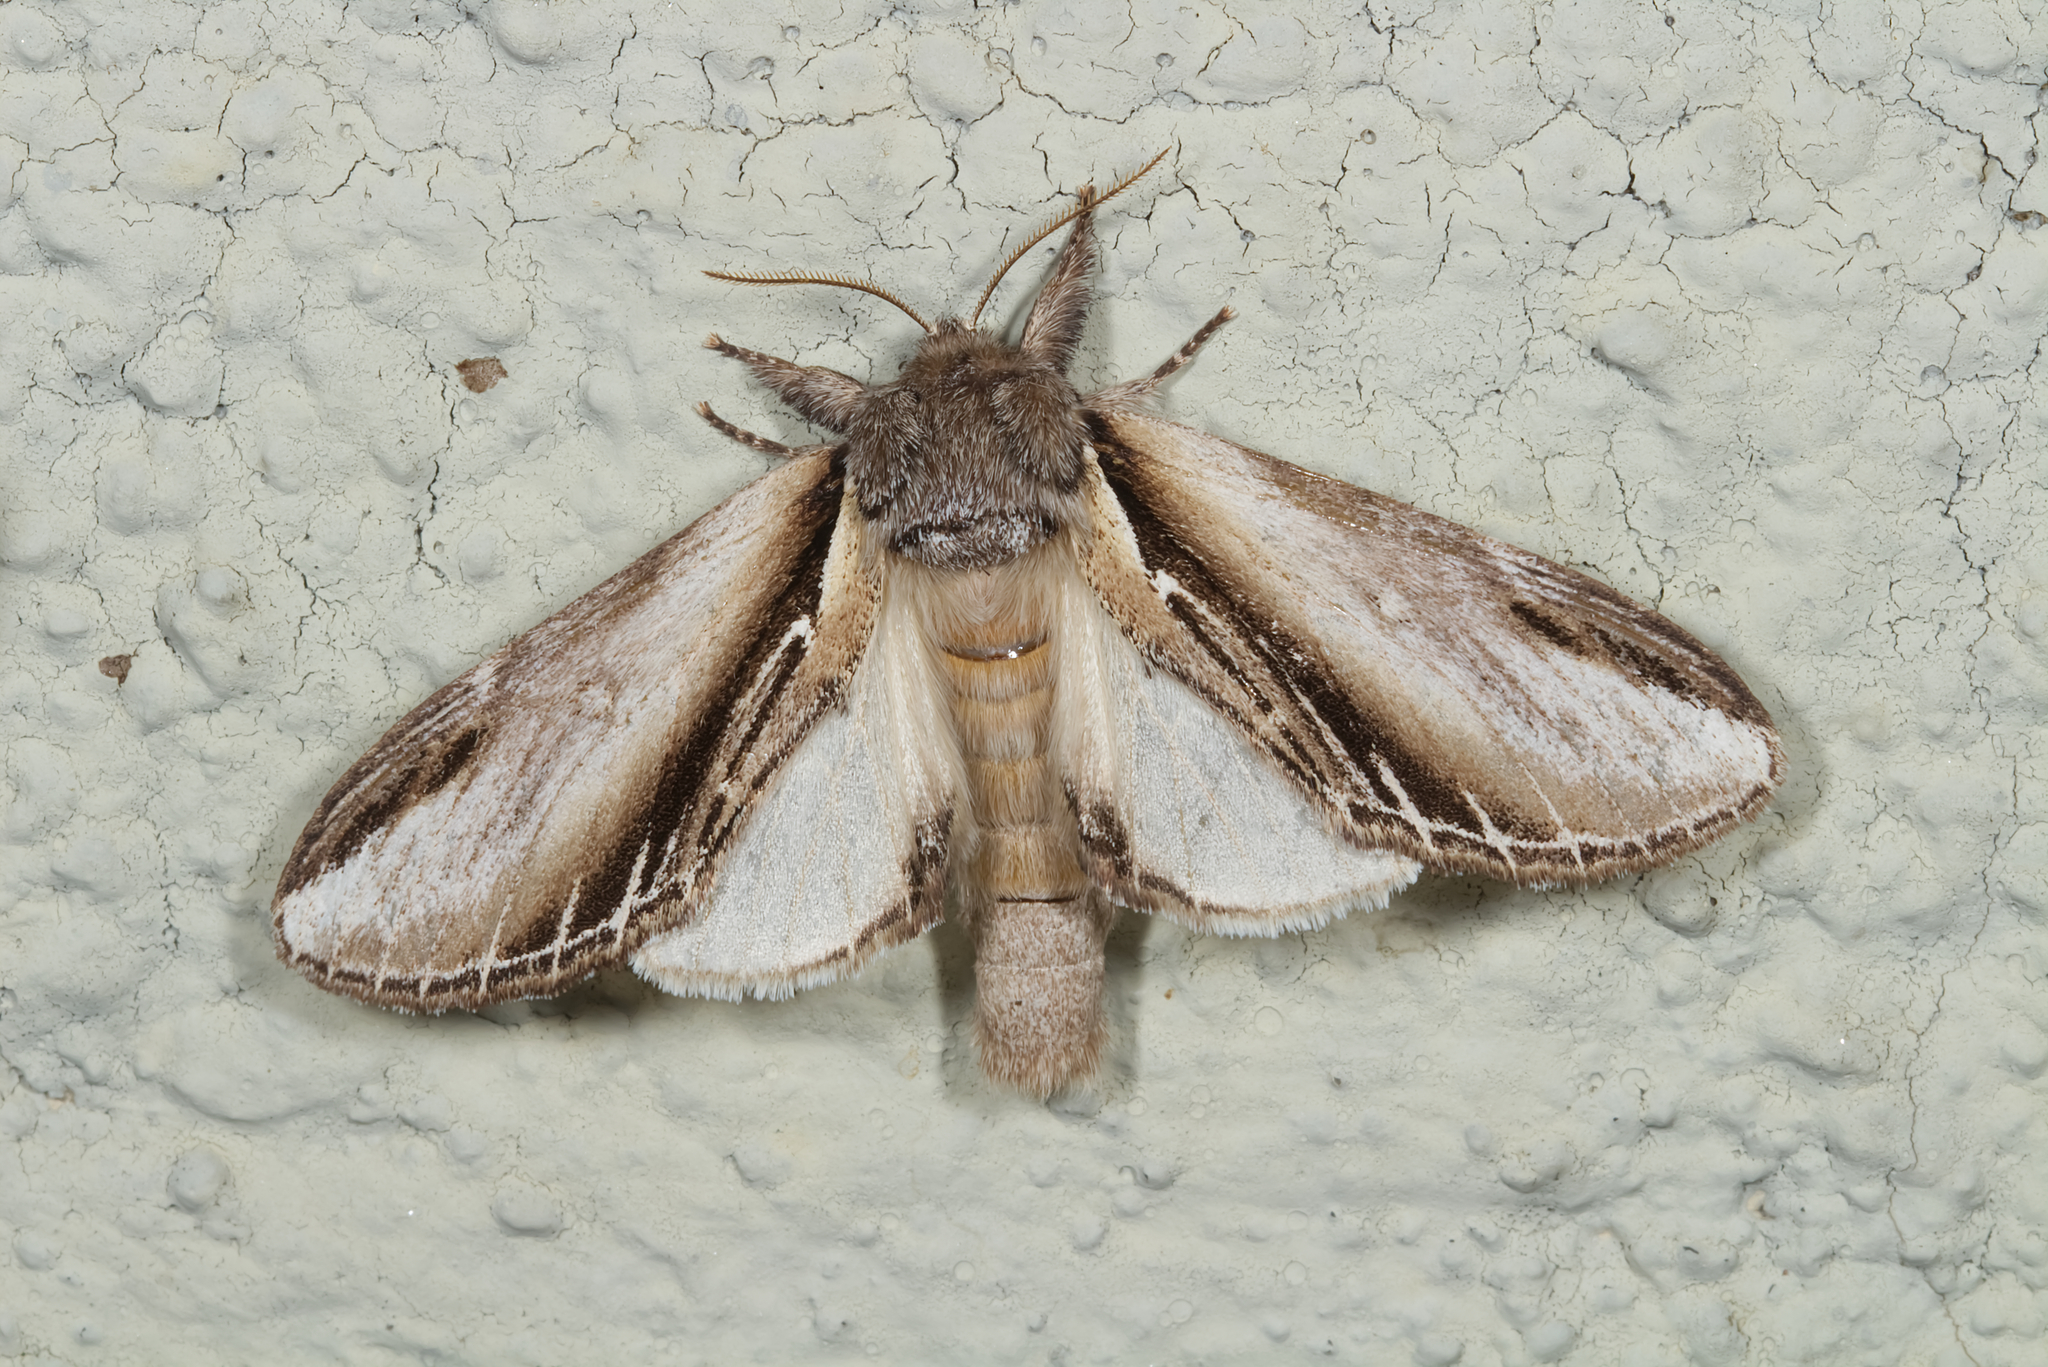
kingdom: Animalia
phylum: Arthropoda
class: Insecta
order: Lepidoptera
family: Notodontidae
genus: Pheosia
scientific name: Pheosia tremula
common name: Swallow prominent
